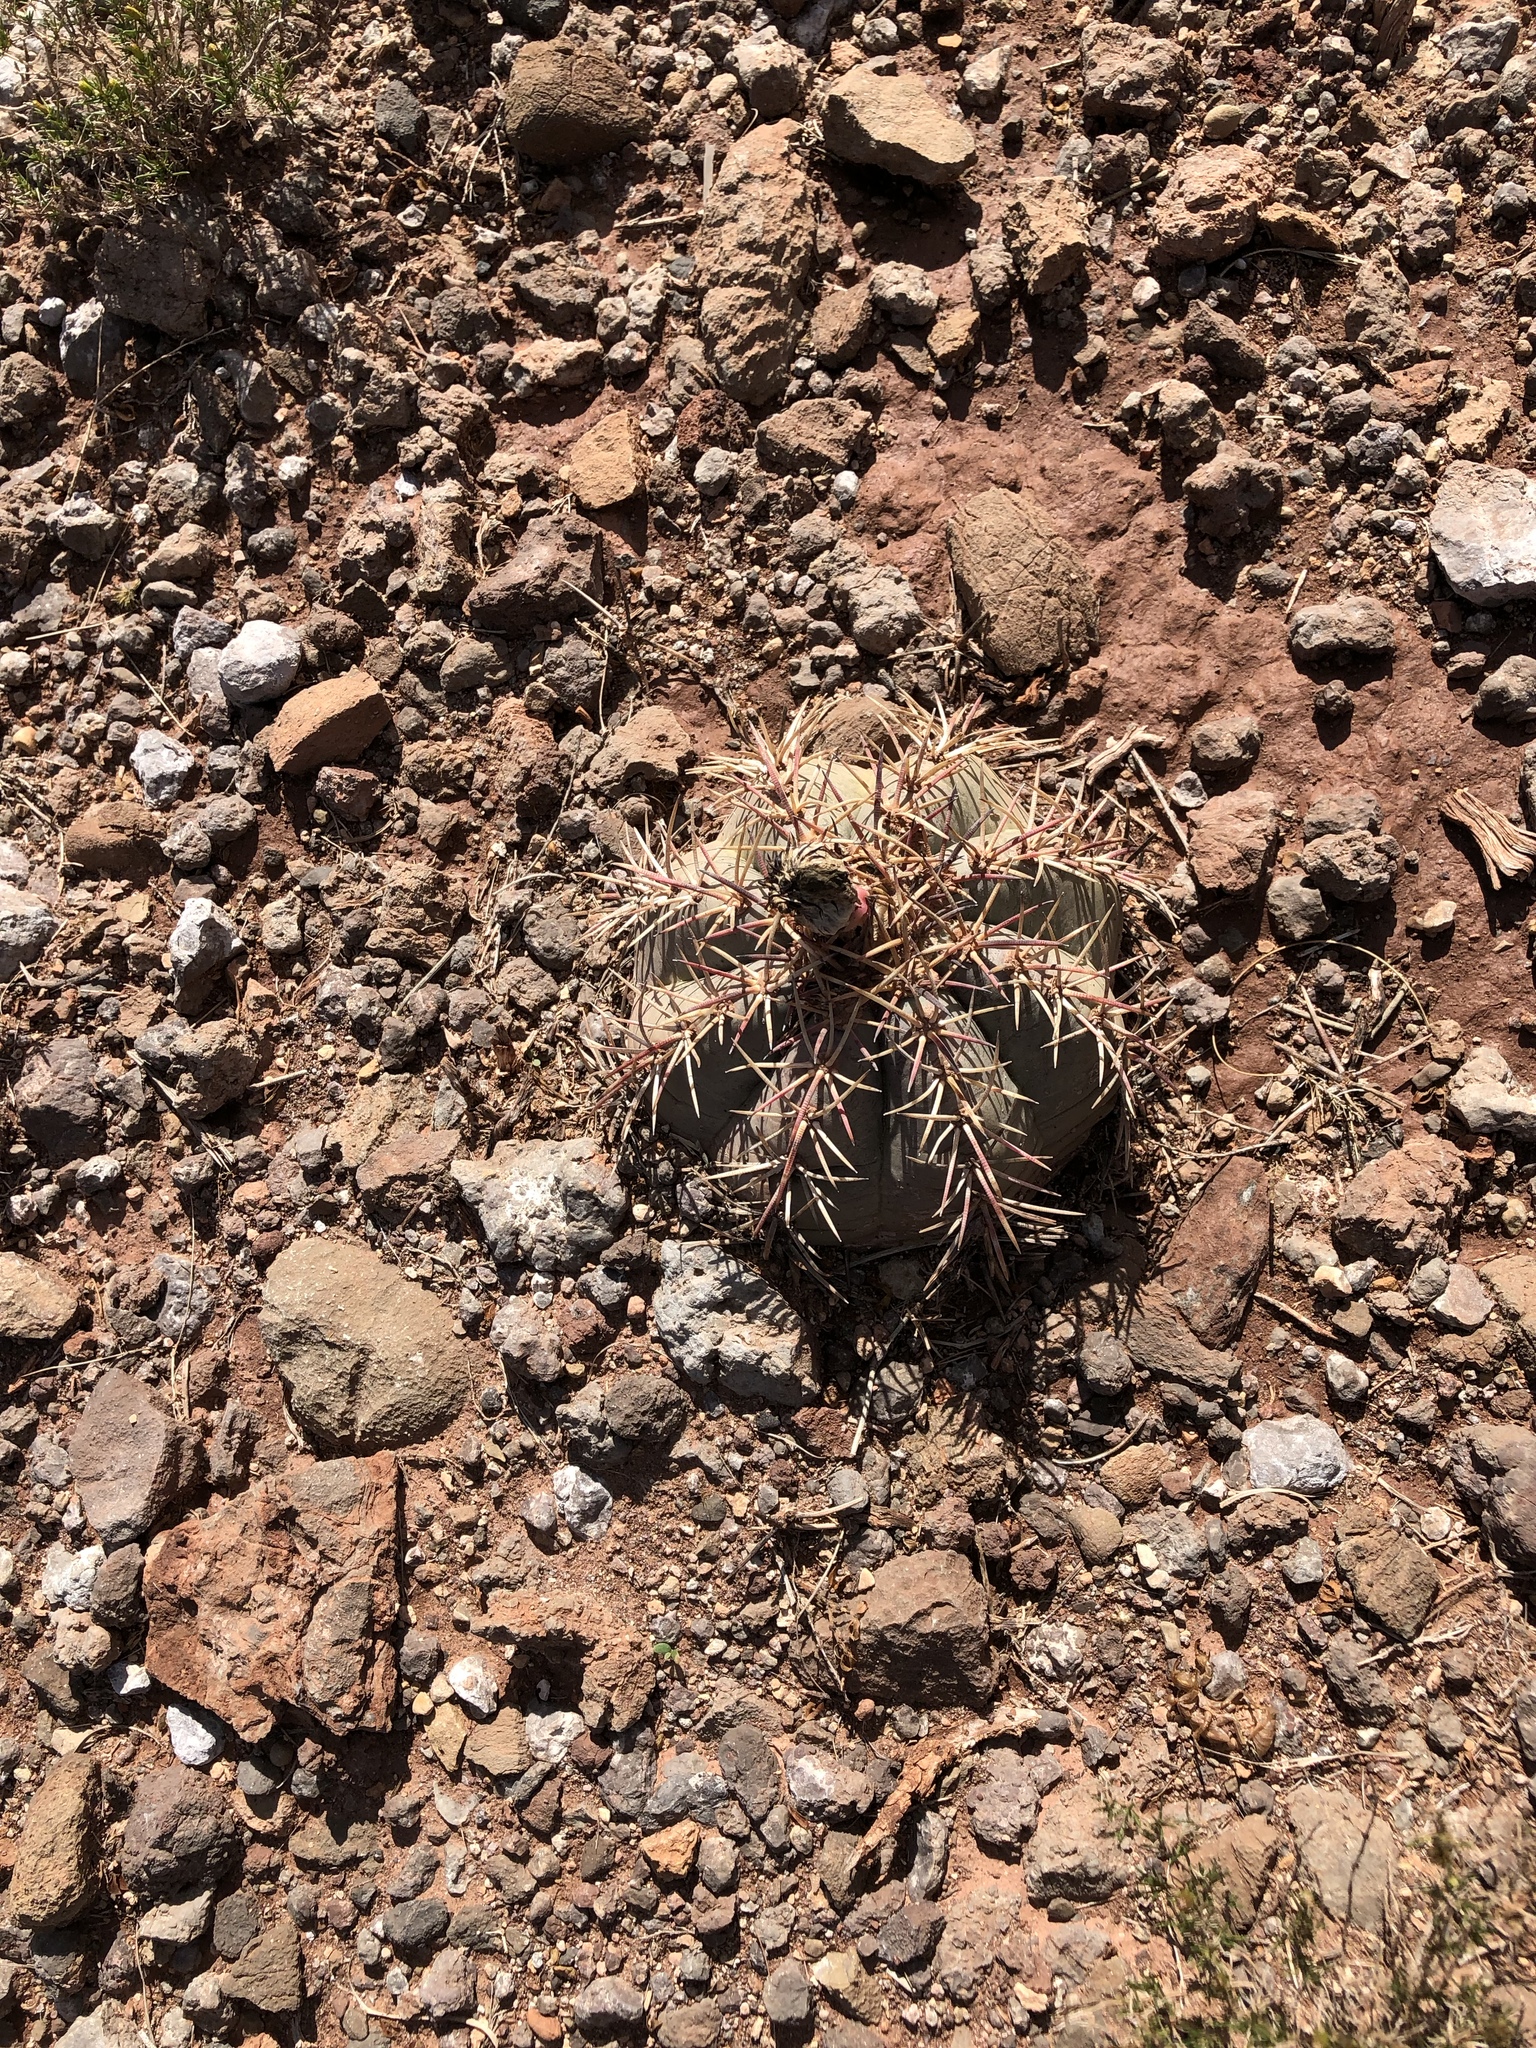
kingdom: Plantae
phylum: Tracheophyta
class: Magnoliopsida
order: Caryophyllales
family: Cactaceae
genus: Echinocactus
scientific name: Echinocactus horizonthalonius
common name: Devilshead
